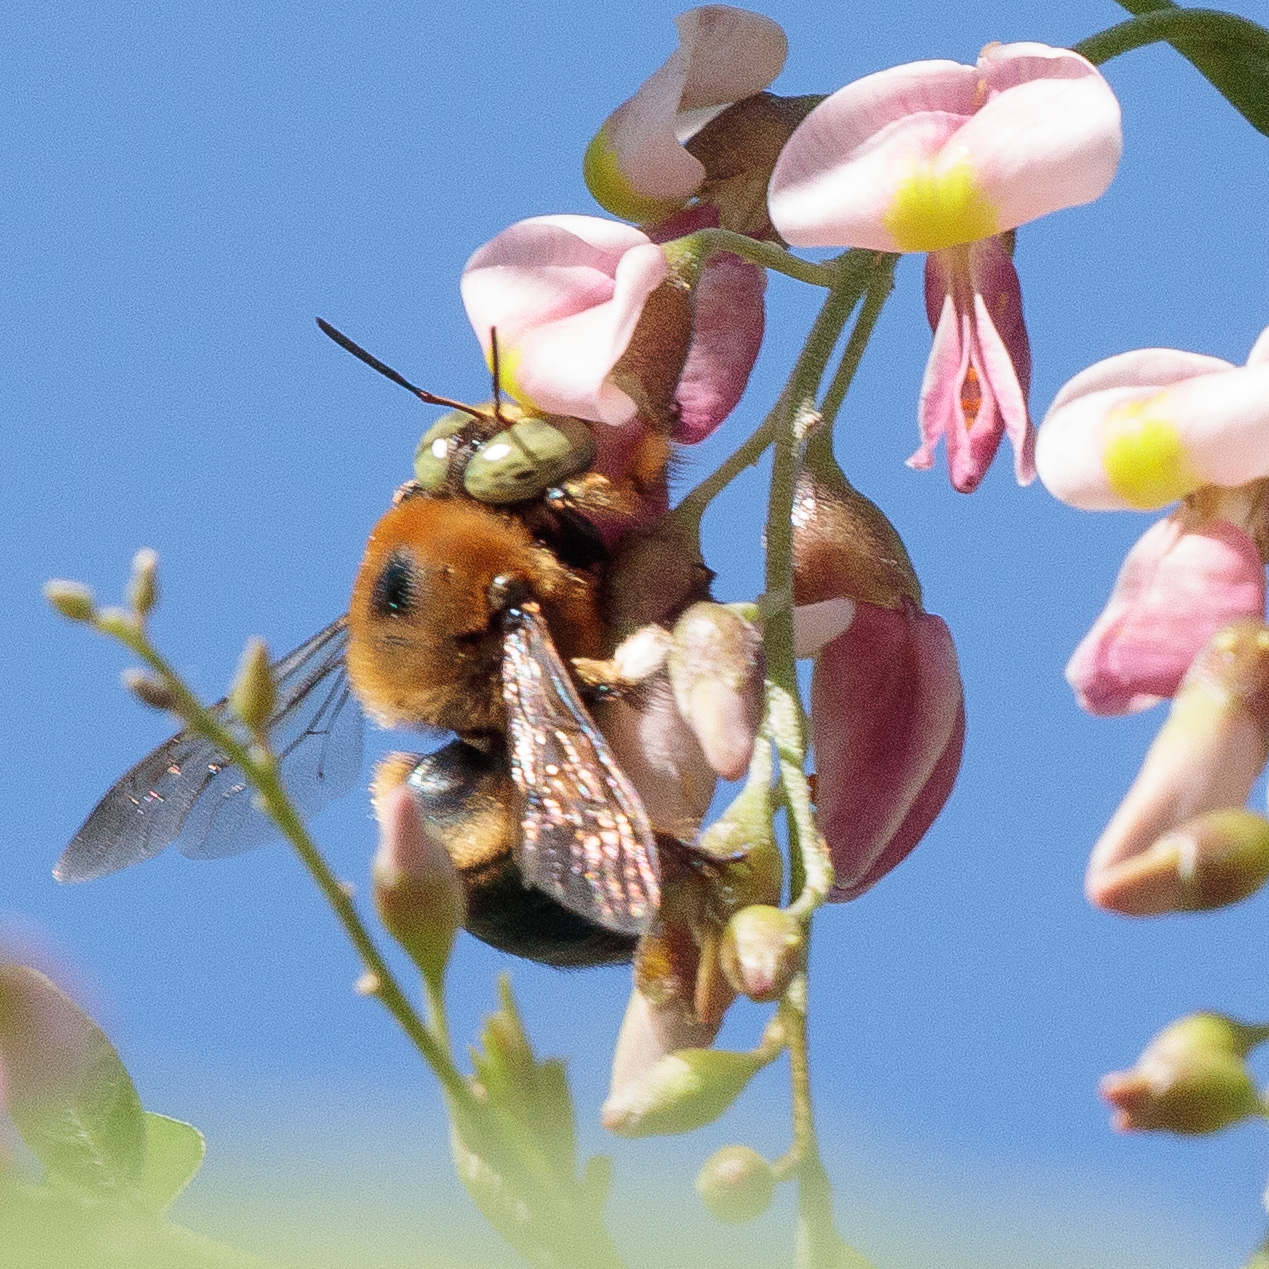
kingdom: Animalia
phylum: Arthropoda
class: Insecta
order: Hymenoptera
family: Apidae
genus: Xylocopa
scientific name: Xylocopa micans
